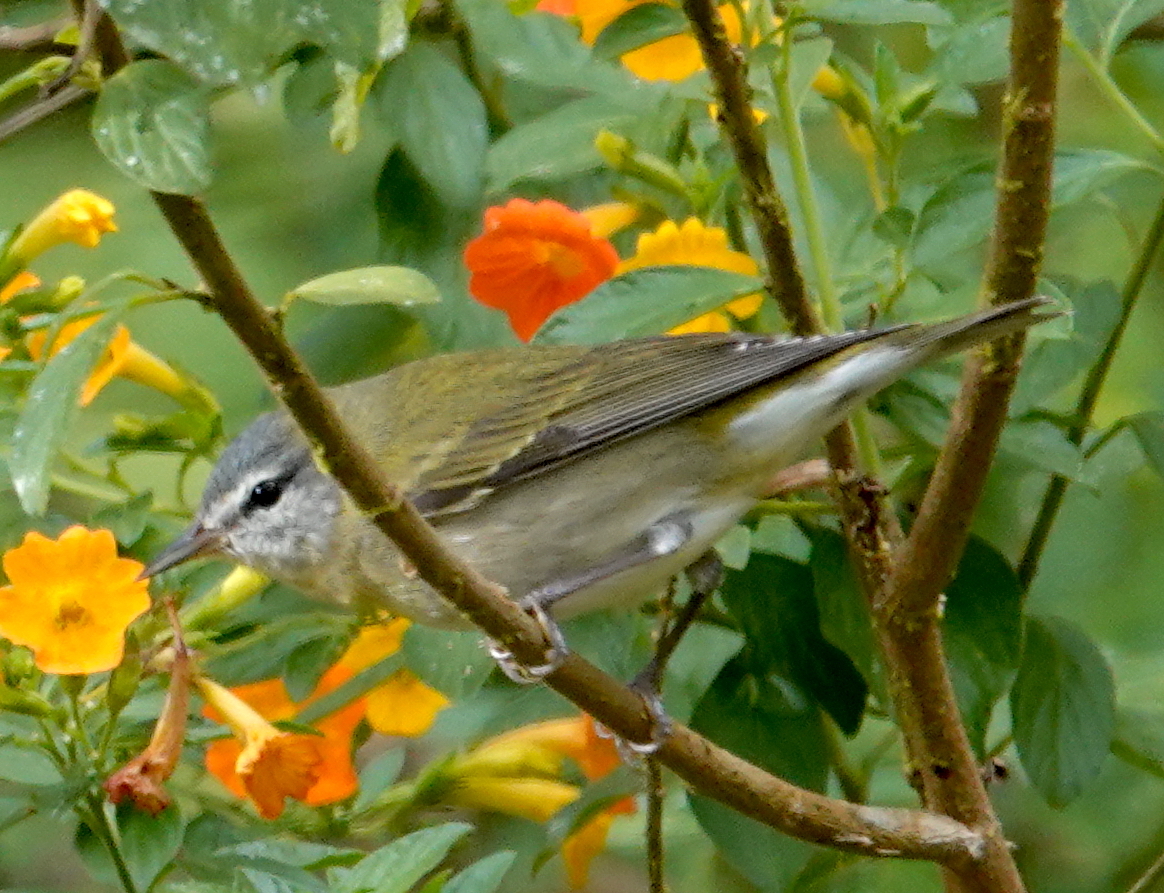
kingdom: Animalia
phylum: Chordata
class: Aves
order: Passeriformes
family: Parulidae
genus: Leiothlypis
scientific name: Leiothlypis peregrina
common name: Tennessee warbler
